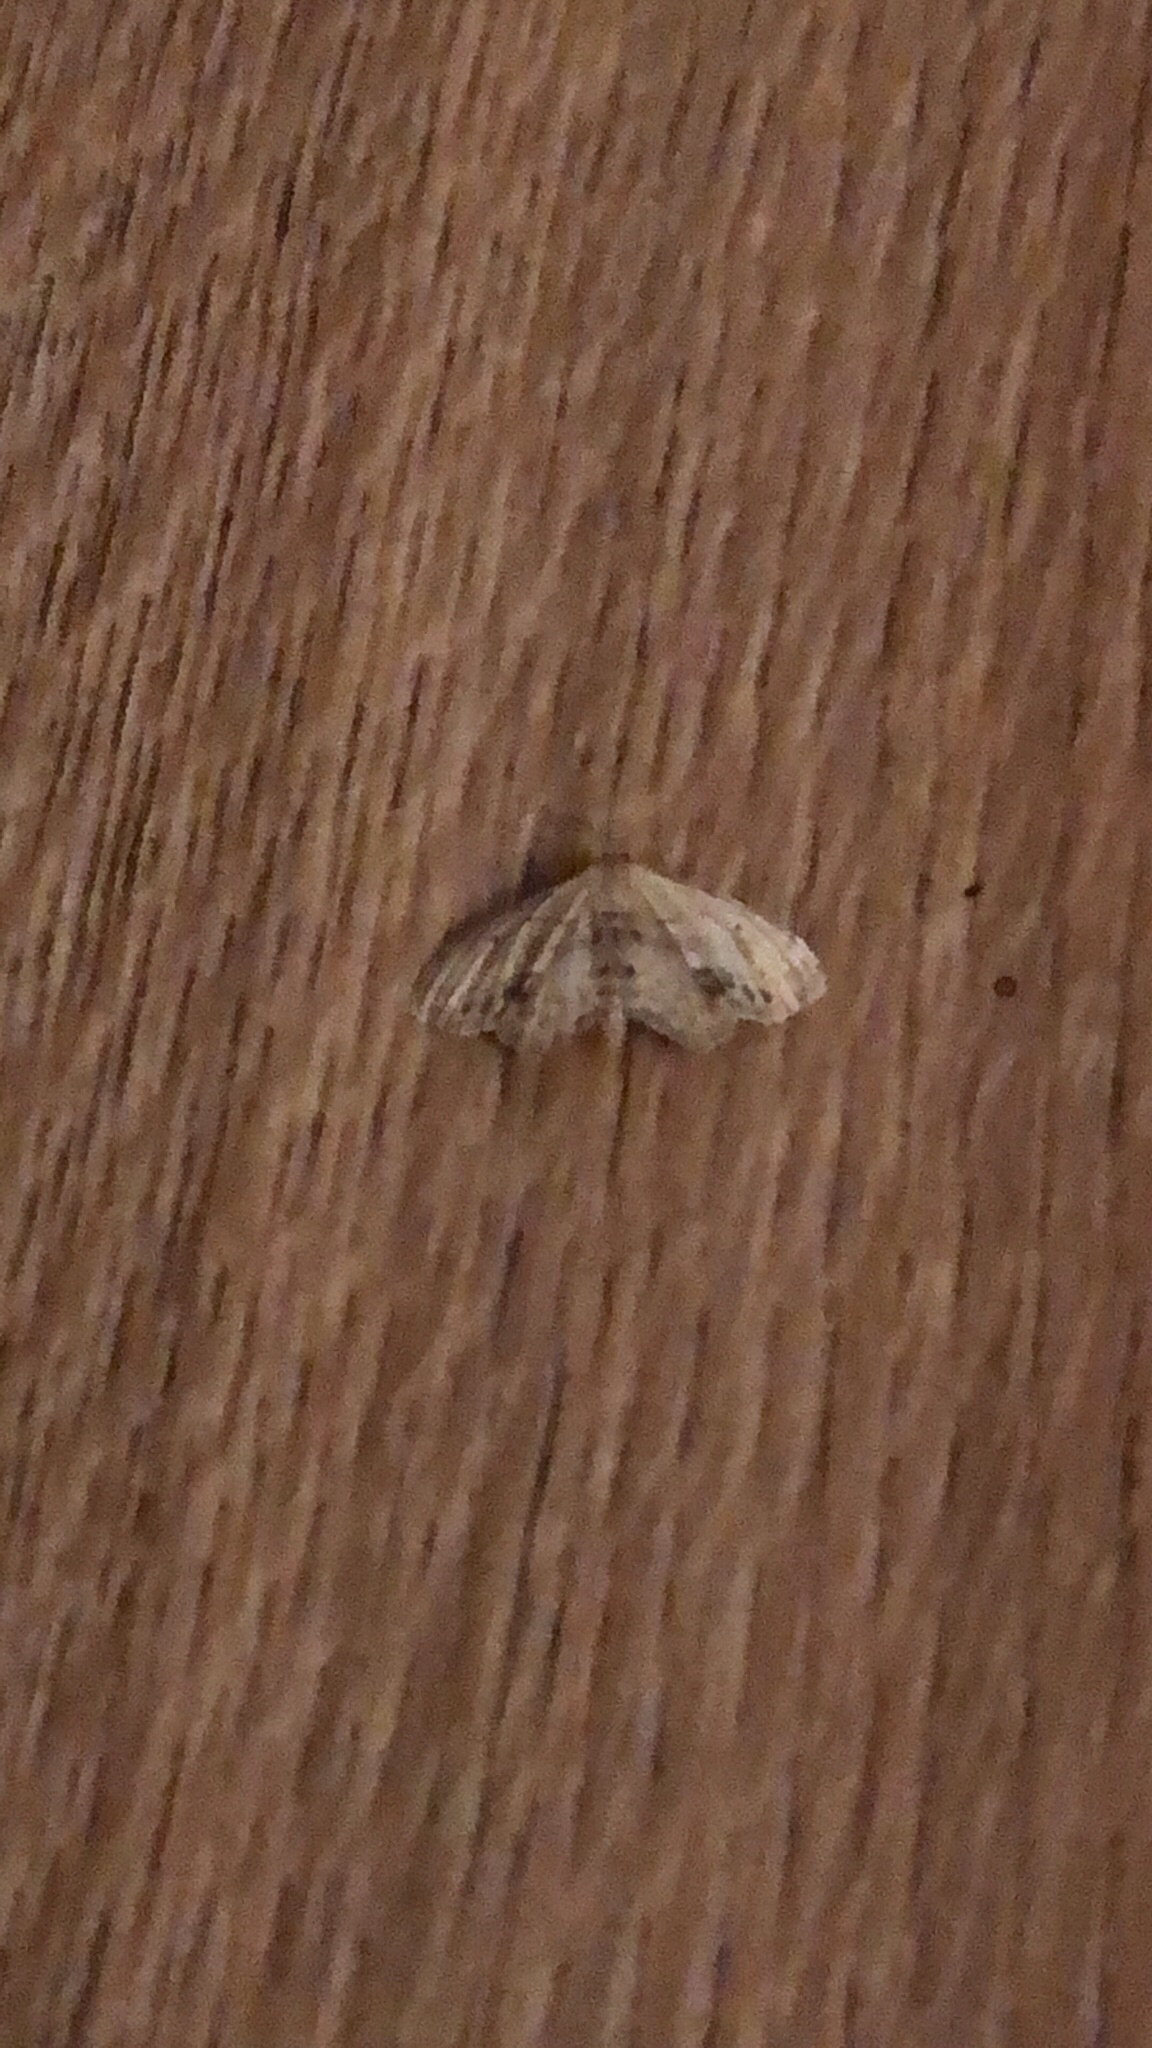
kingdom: Animalia
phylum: Arthropoda
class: Insecta
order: Lepidoptera
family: Geometridae
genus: Idaea
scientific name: Idaea dimidiata
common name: Single-dotted wave
